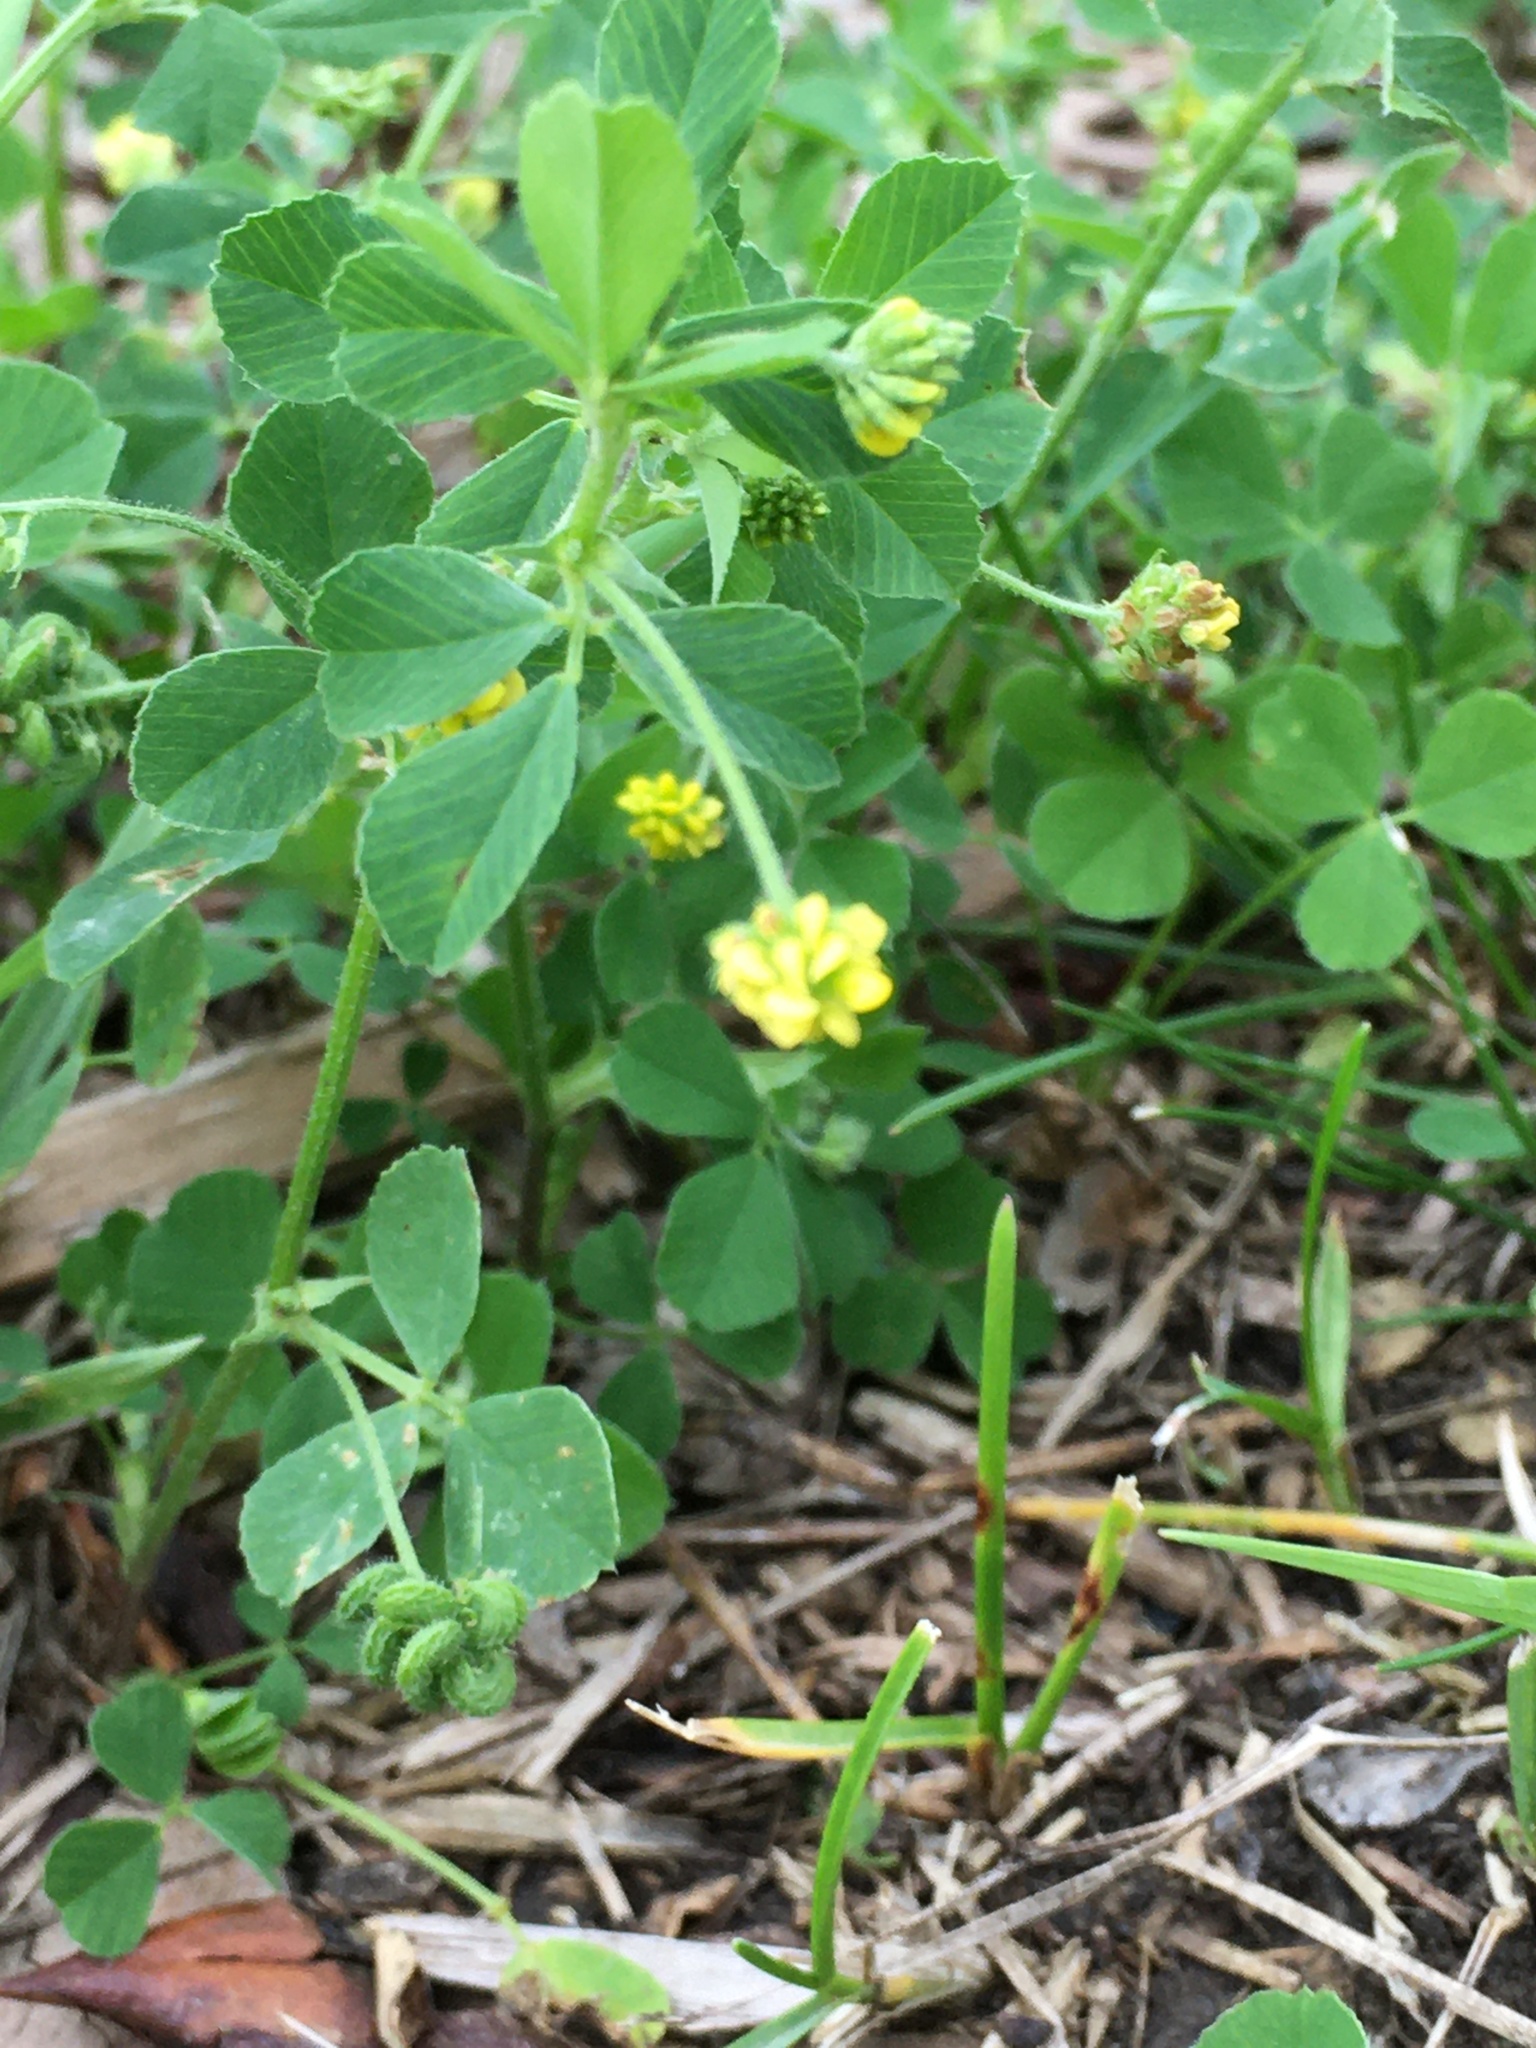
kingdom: Plantae
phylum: Tracheophyta
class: Magnoliopsida
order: Fabales
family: Fabaceae
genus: Medicago
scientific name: Medicago lupulina
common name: Black medick
